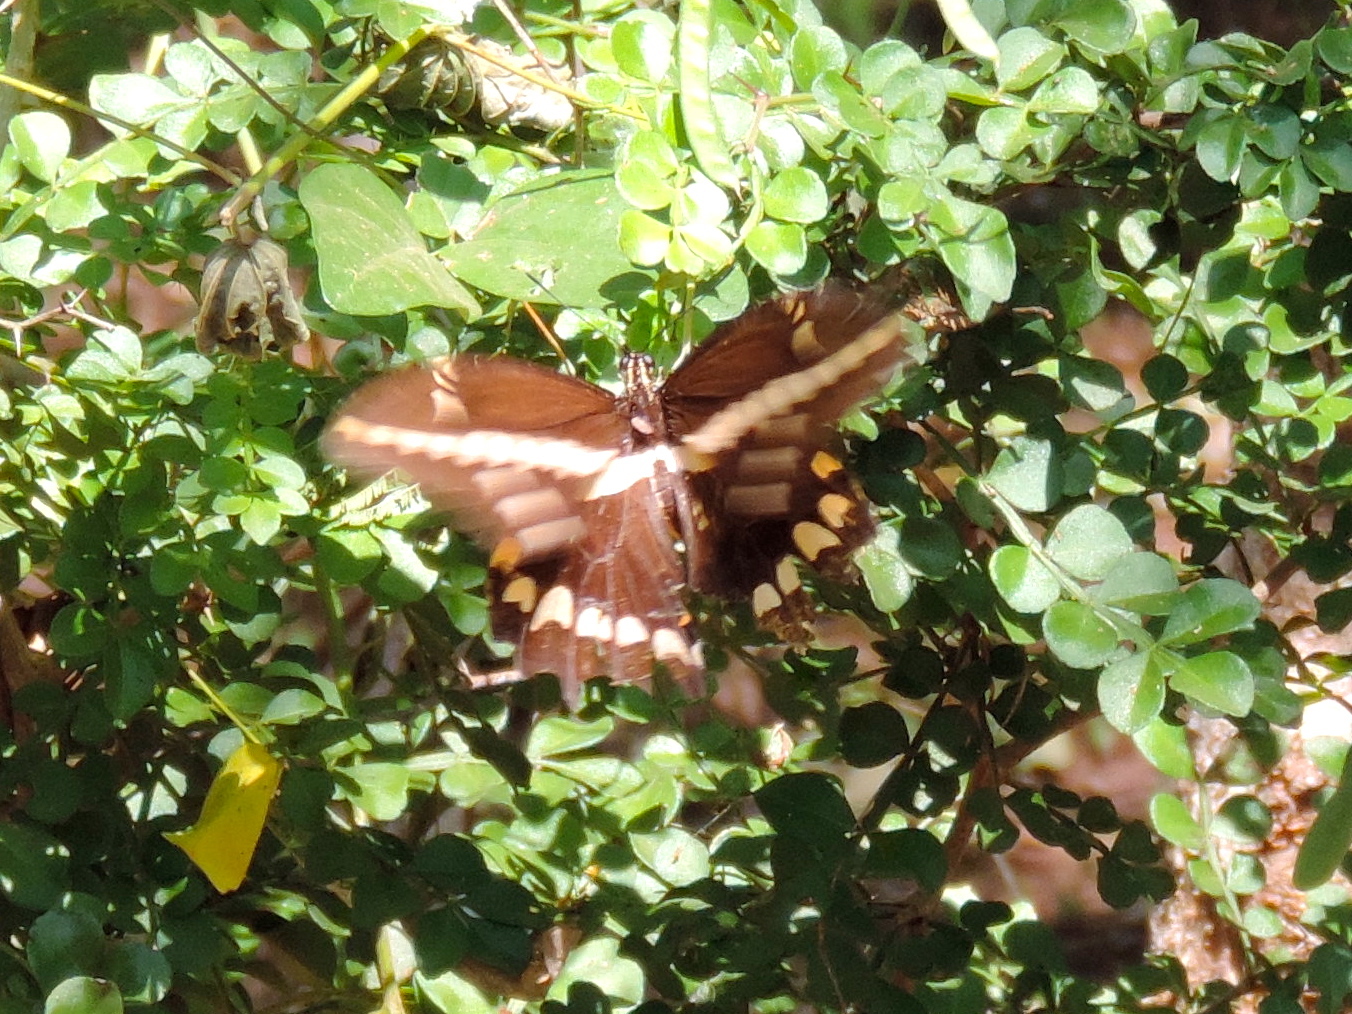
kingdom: Animalia
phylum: Arthropoda
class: Insecta
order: Lepidoptera
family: Papilionidae
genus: Papilio
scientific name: Papilio rumiko
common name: Western giant swallowtail
